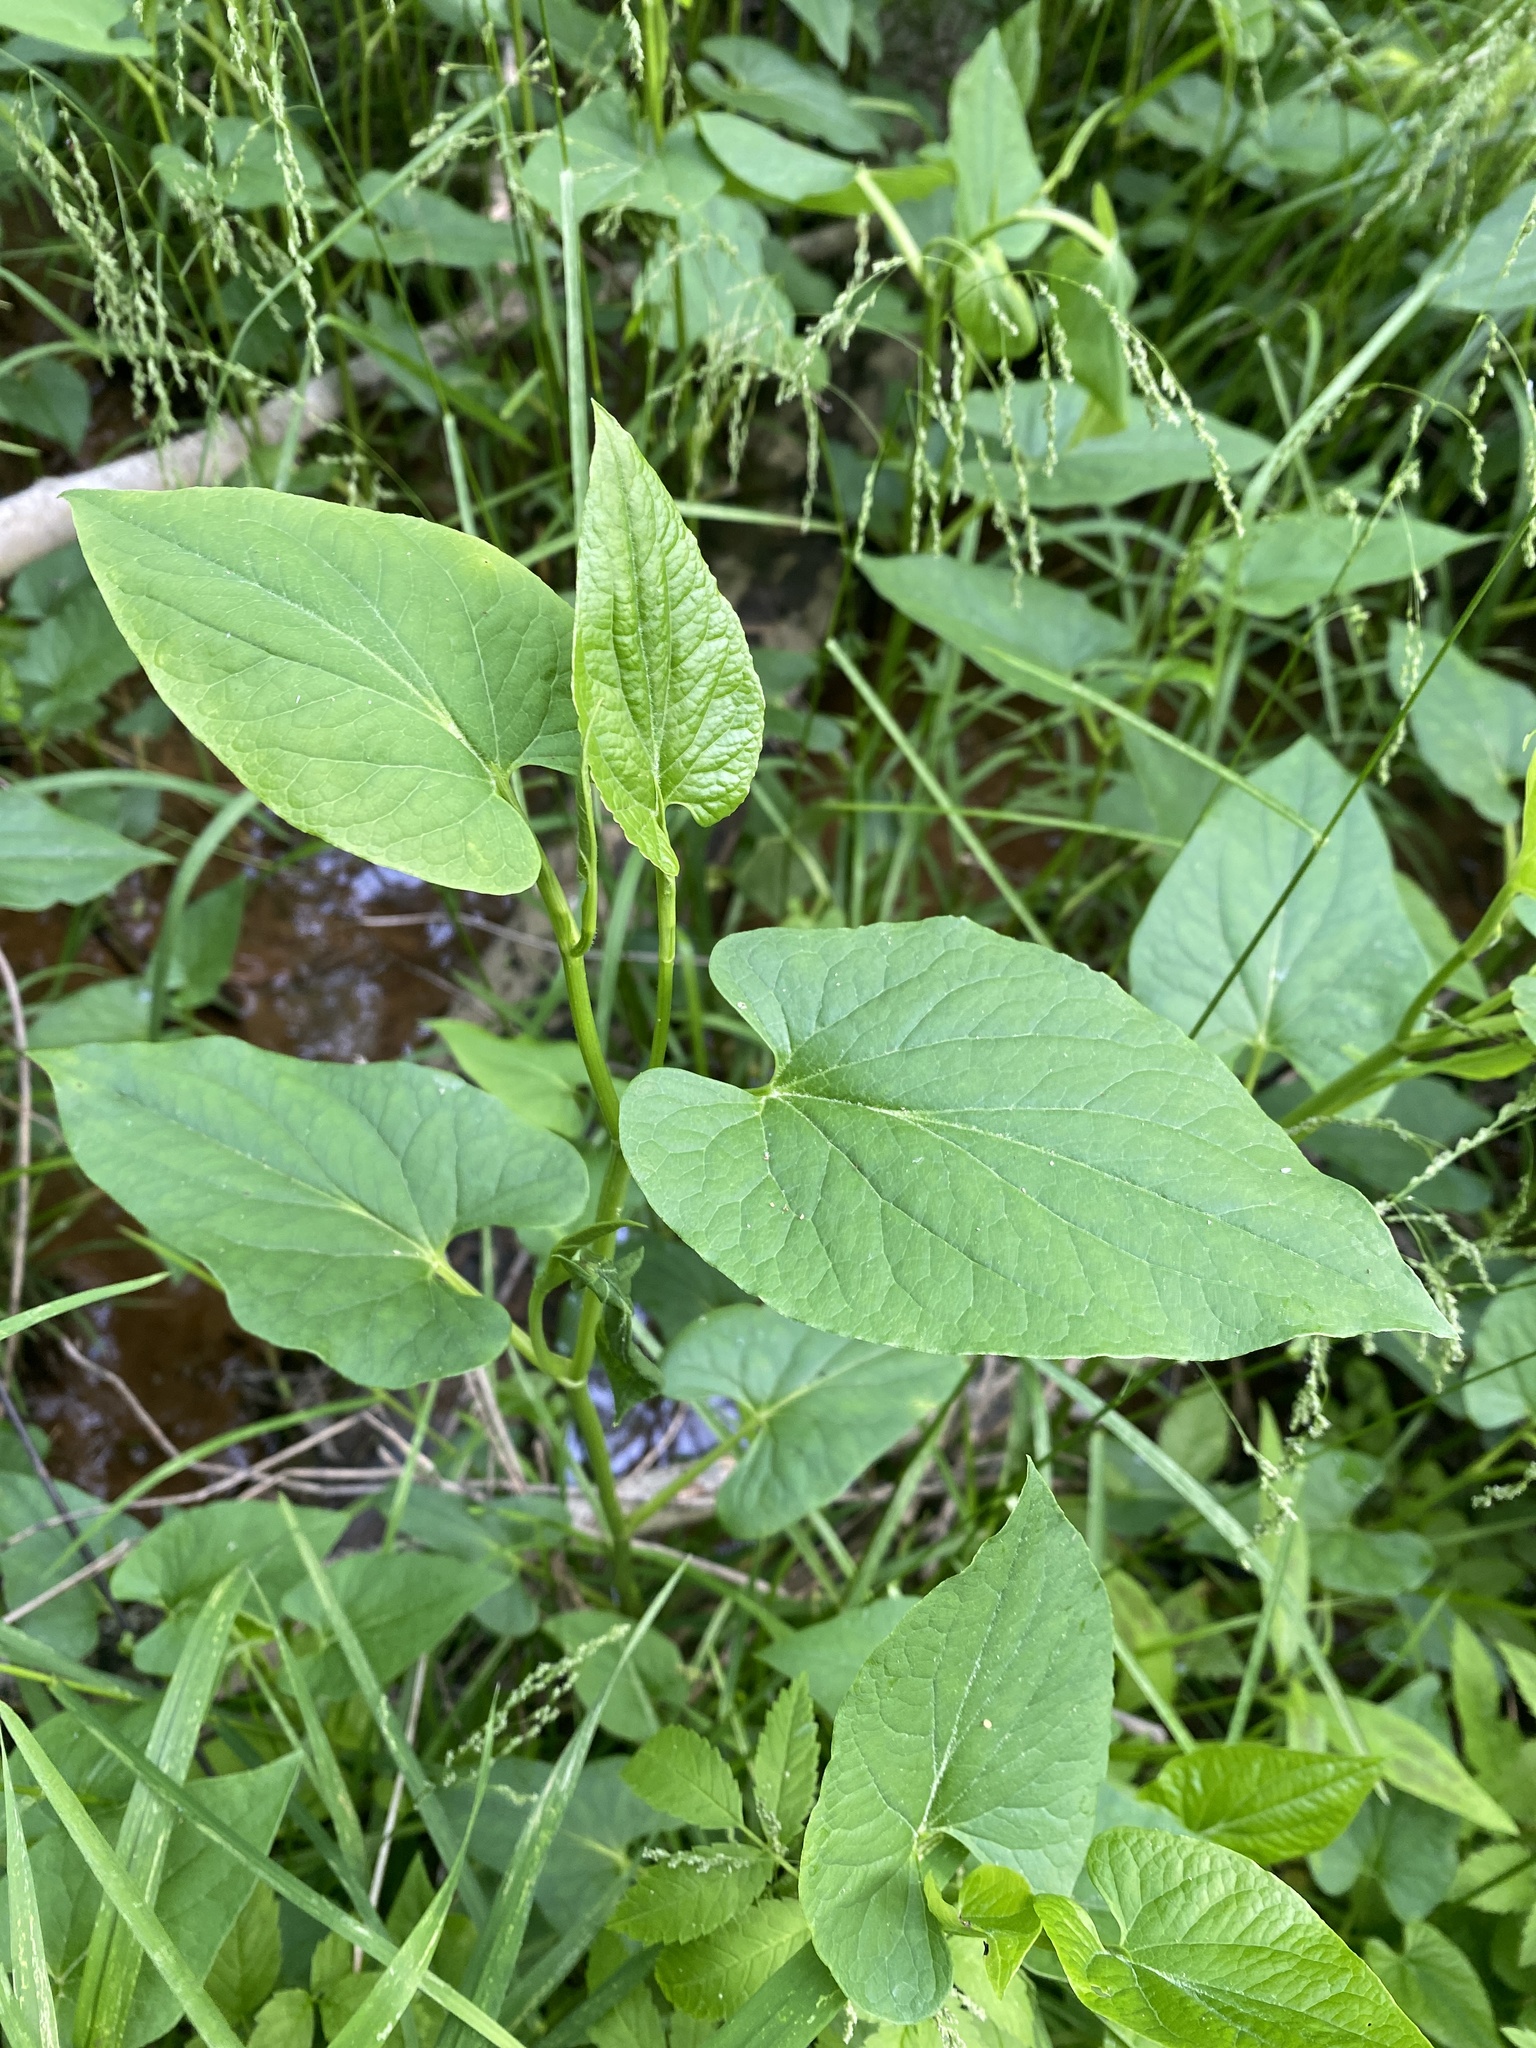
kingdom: Plantae
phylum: Tracheophyta
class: Magnoliopsida
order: Piperales
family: Saururaceae
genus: Saururus
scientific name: Saururus cernuus
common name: Lizard's-tail
